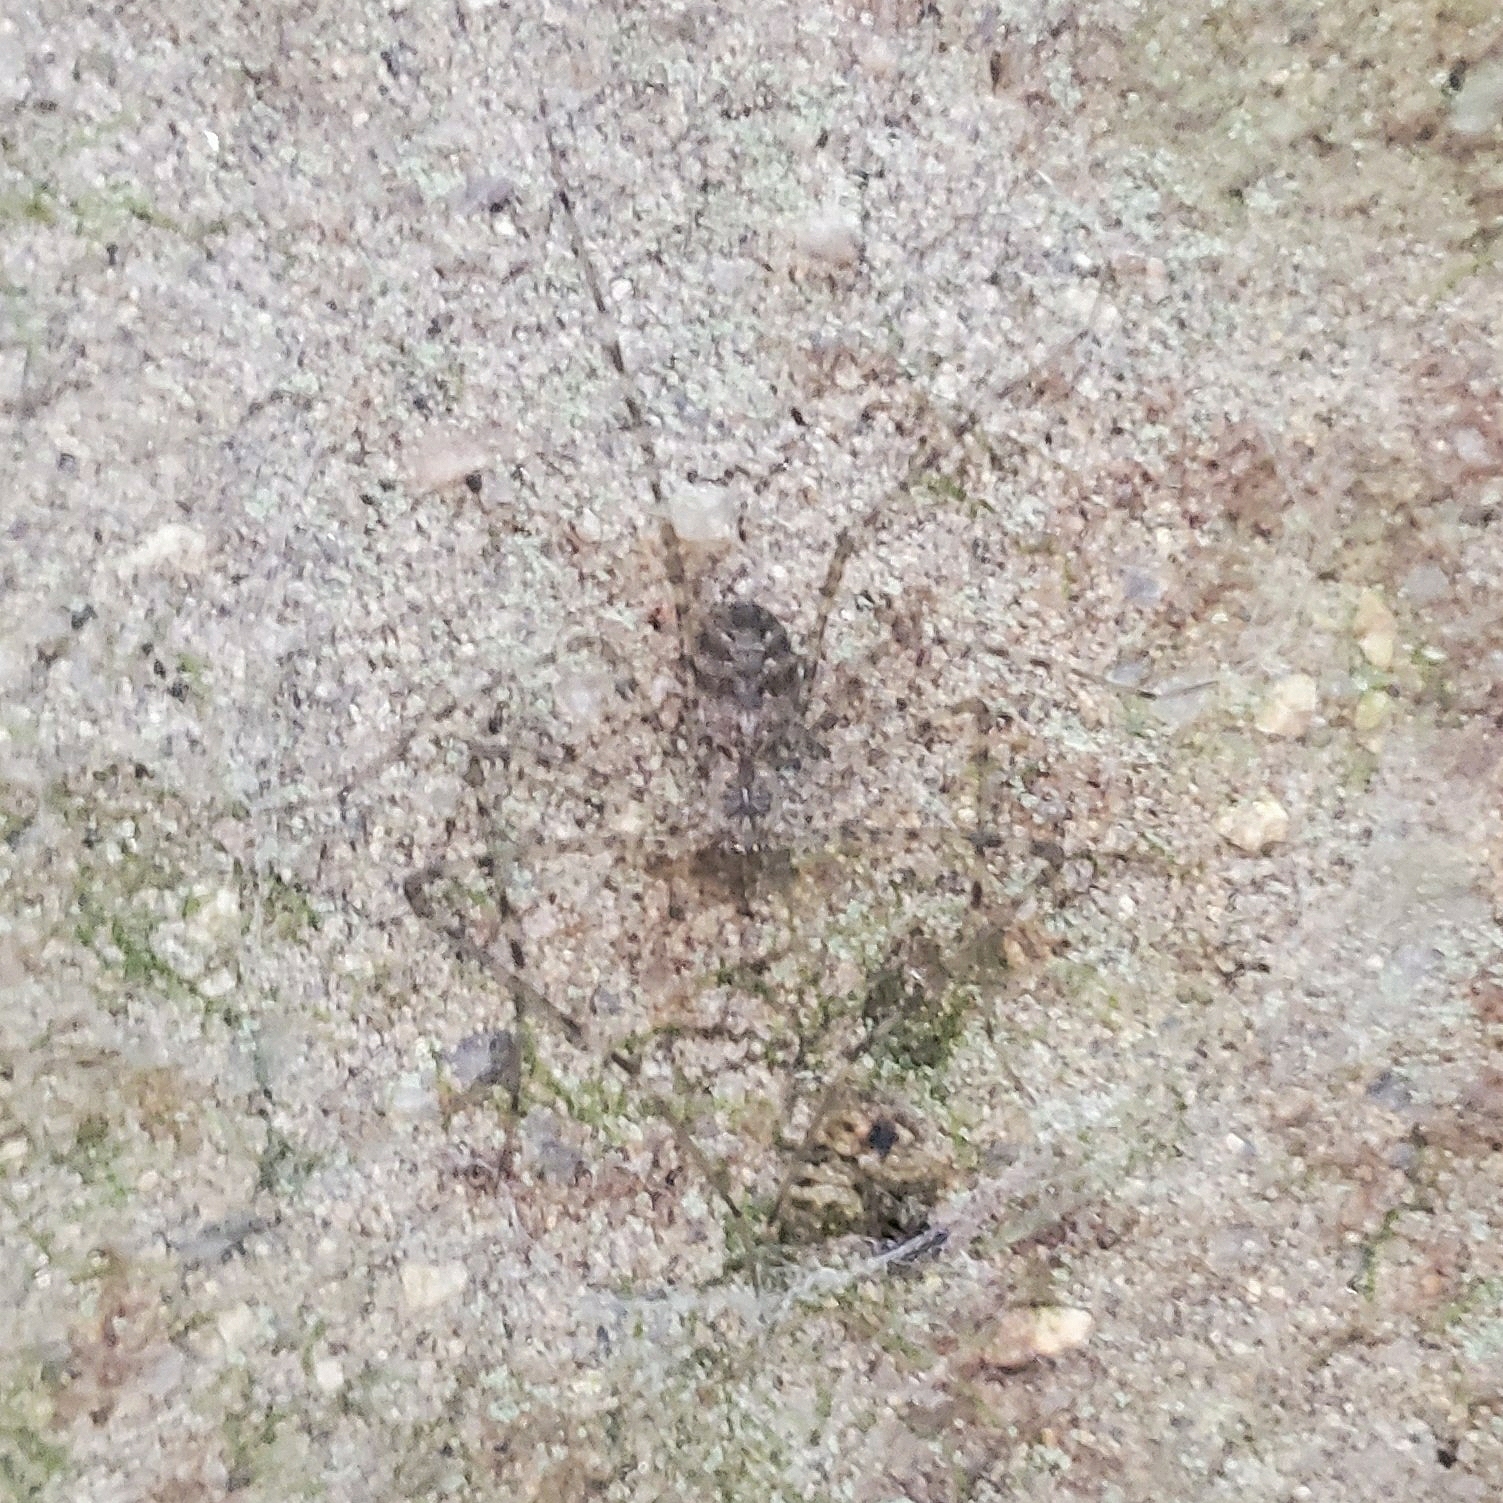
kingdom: Animalia
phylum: Arthropoda
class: Arachnida
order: Araneae
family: Hypochilidae
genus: Hypochilus
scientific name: Hypochilus pococki
